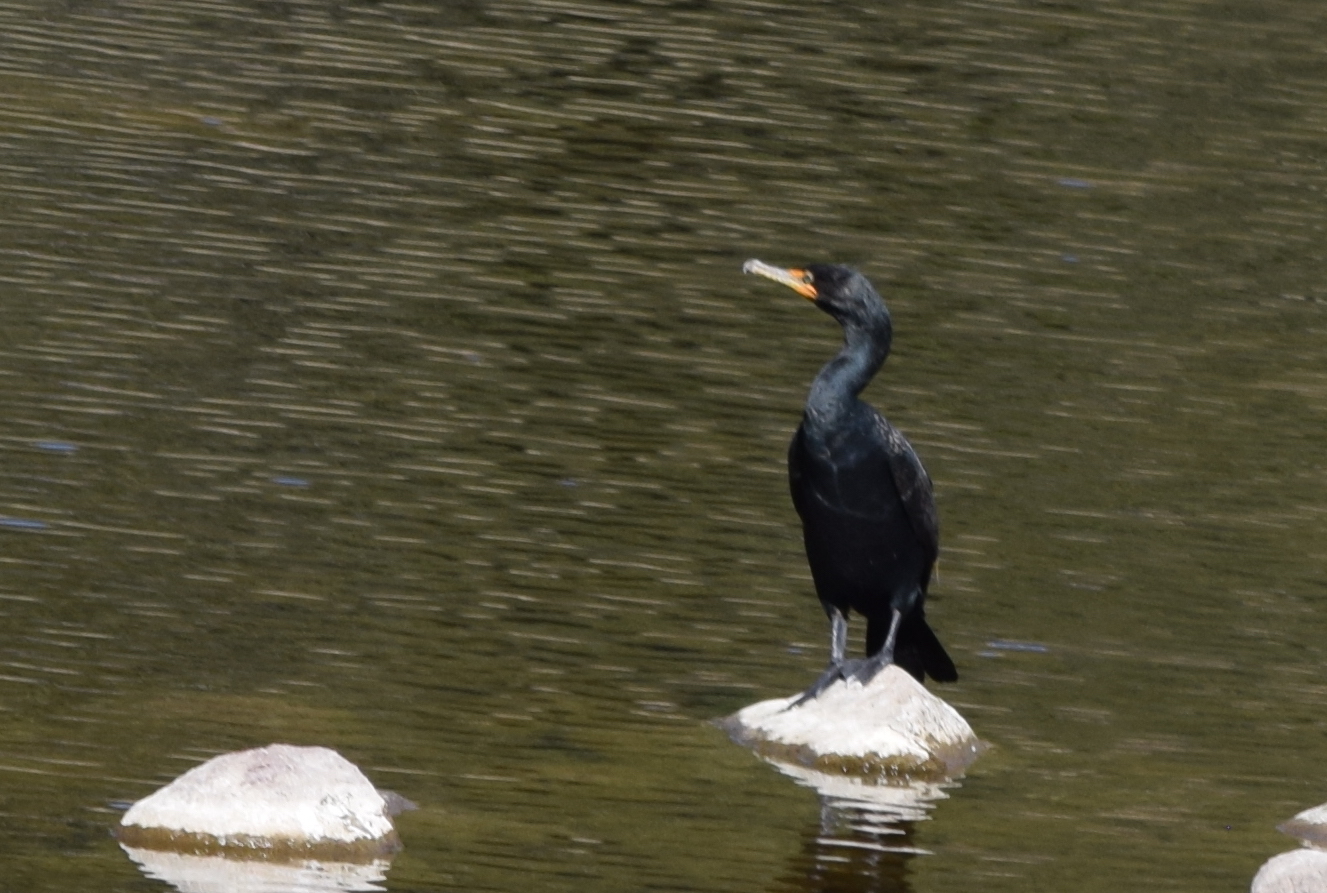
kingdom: Animalia
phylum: Chordata
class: Aves
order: Suliformes
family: Phalacrocoracidae
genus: Phalacrocorax
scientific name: Phalacrocorax auritus
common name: Double-crested cormorant
